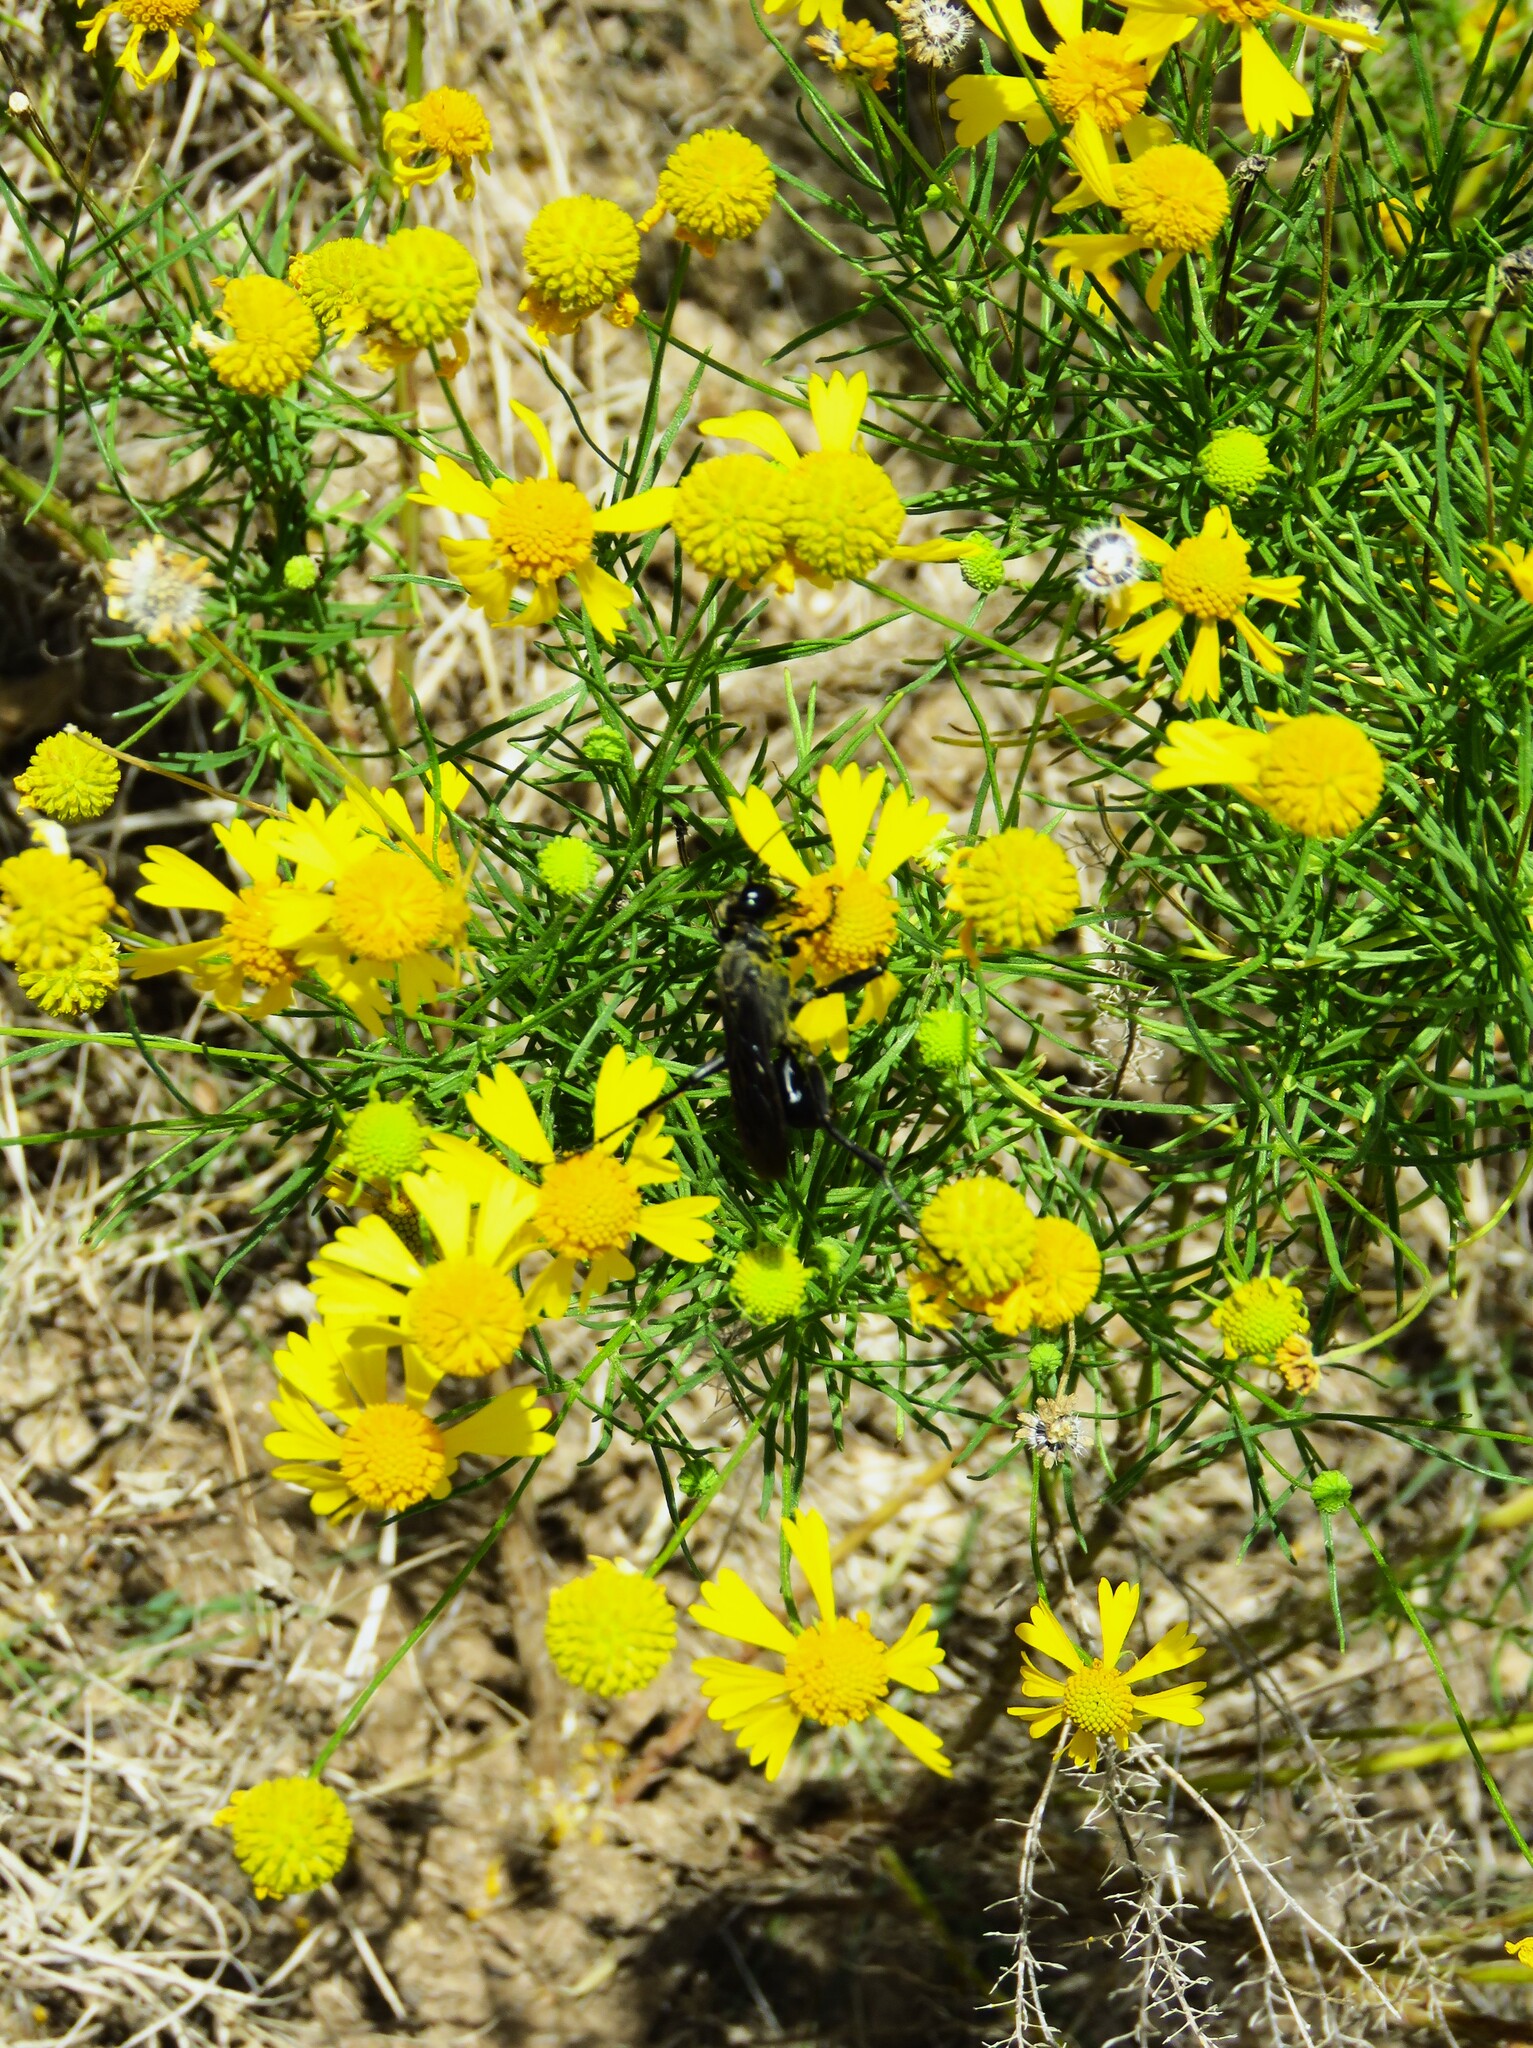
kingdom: Plantae
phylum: Tracheophyta
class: Magnoliopsida
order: Asterales
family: Asteraceae
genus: Helenium
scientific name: Helenium amarum
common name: Bitter sneezeweed
